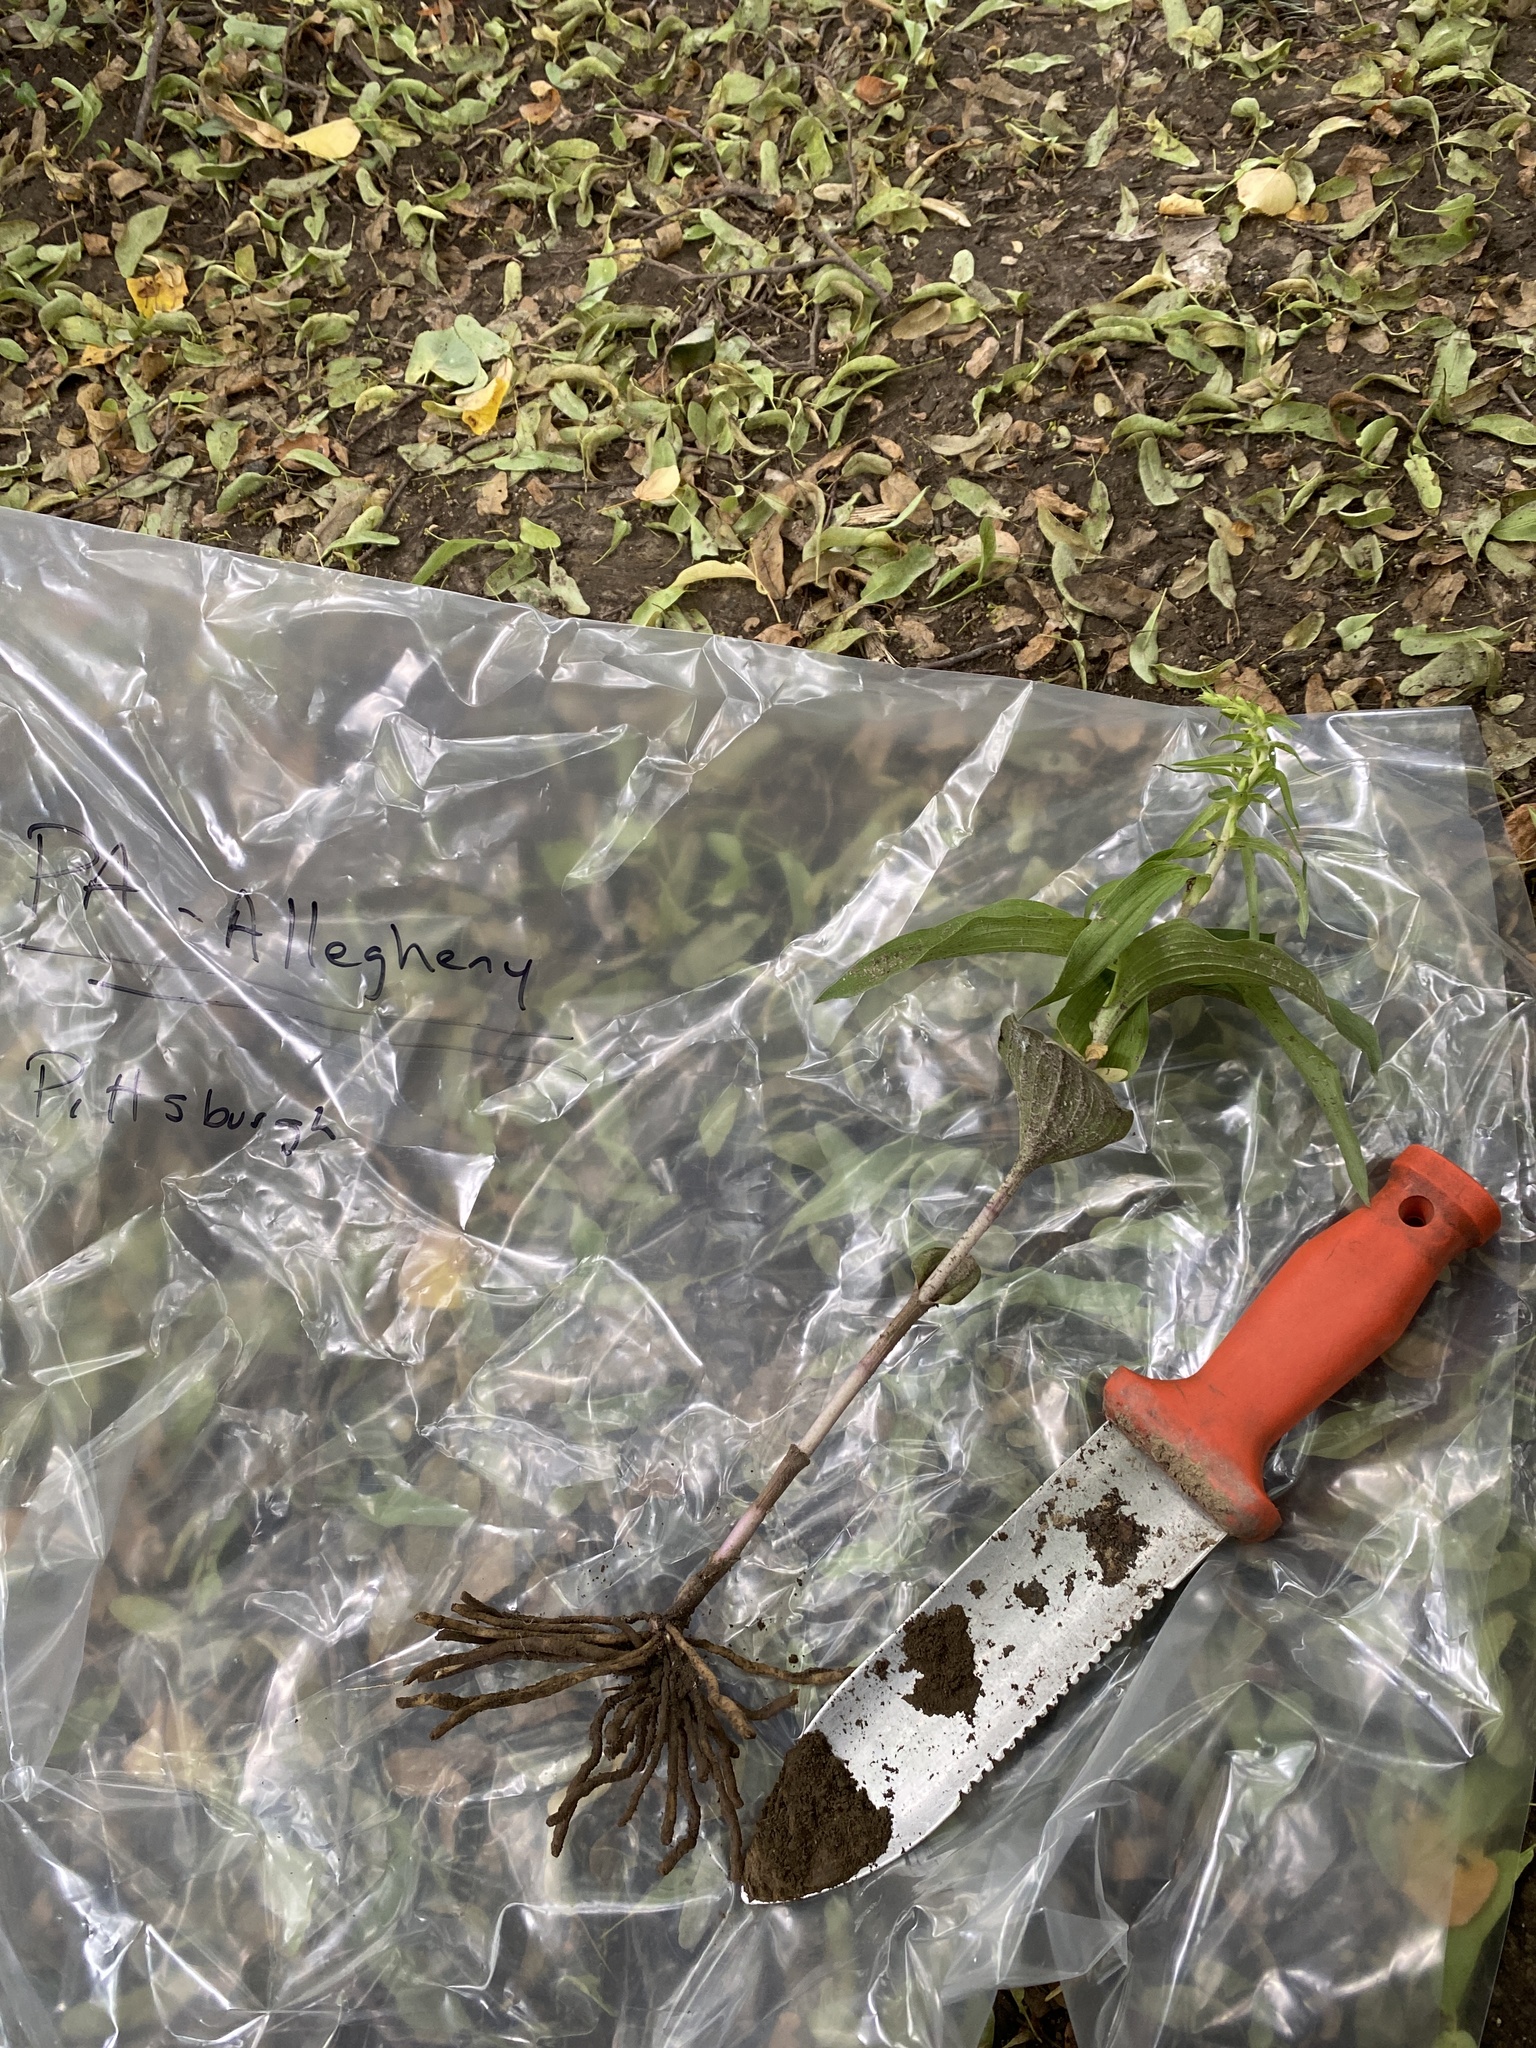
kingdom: Plantae
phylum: Tracheophyta
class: Liliopsida
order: Asparagales
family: Orchidaceae
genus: Epipactis
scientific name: Epipactis helleborine
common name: Broad-leaved helleborine
